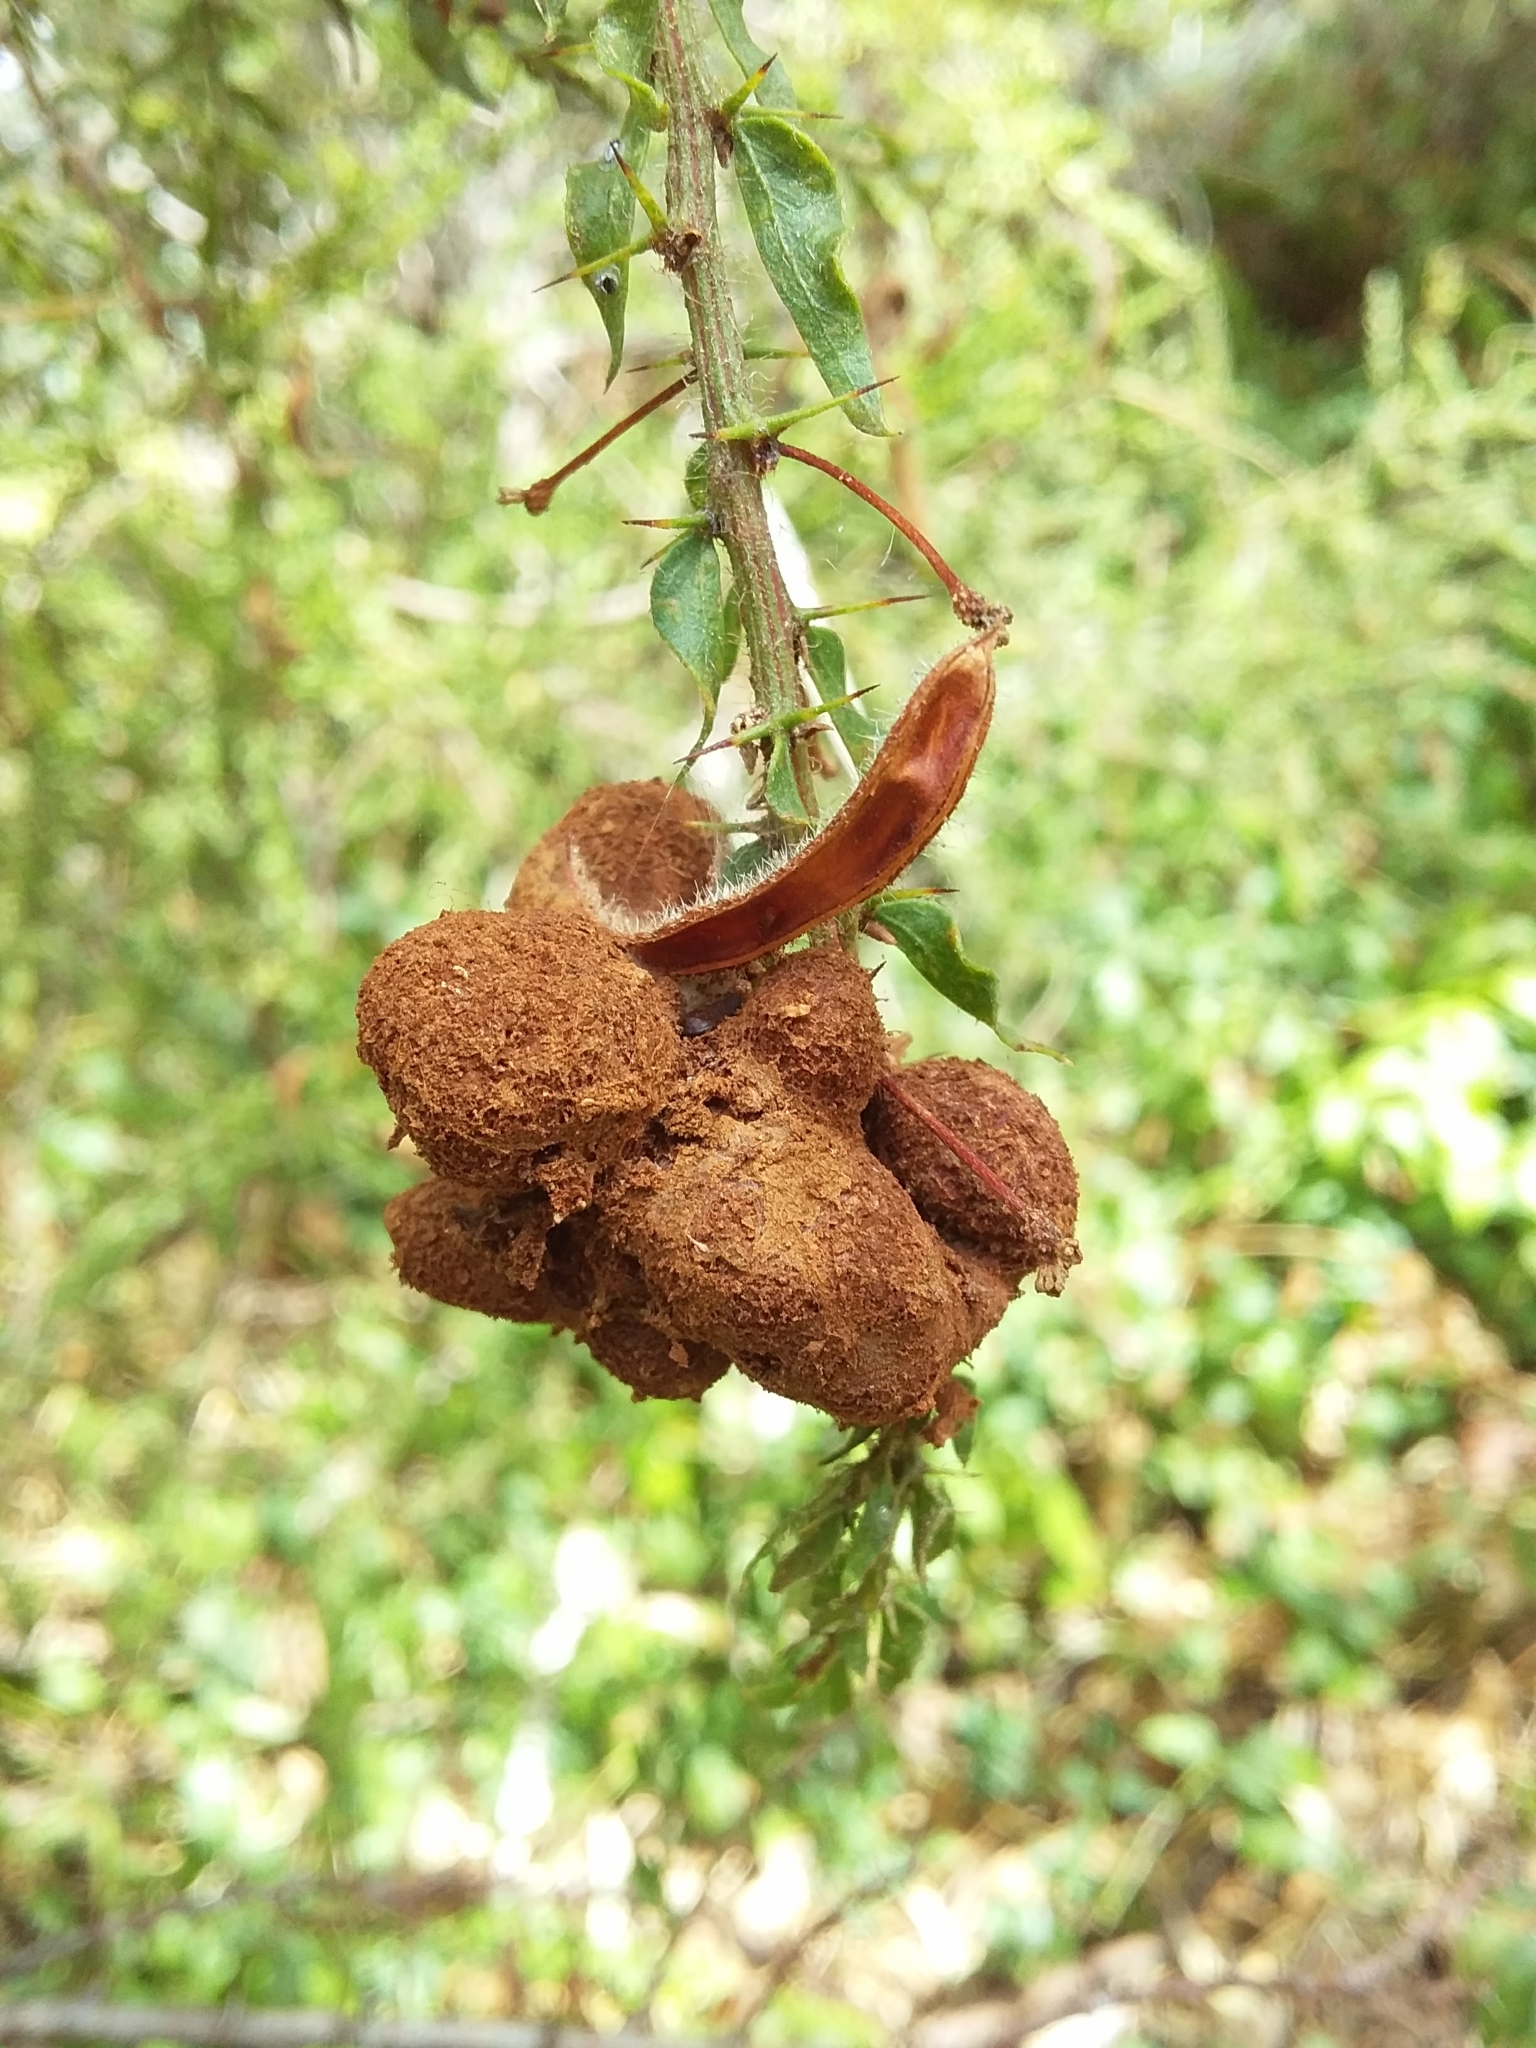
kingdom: Fungi
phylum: Basidiomycota
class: Pucciniomycetes
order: Pucciniales
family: Uromycladiaceae
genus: Uromycladium
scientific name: Uromycladium paradoxae
